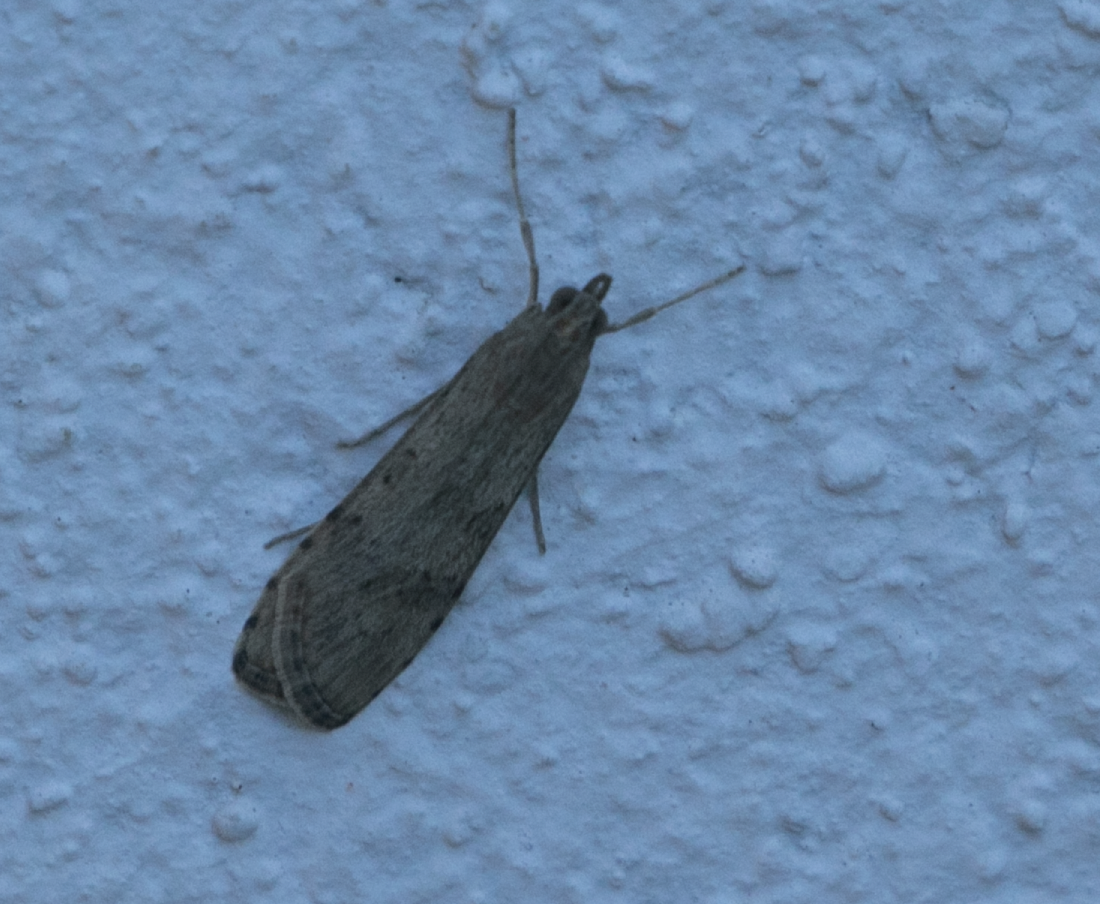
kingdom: Animalia
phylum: Arthropoda
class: Insecta
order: Lepidoptera
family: Crambidae
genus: Nomophila
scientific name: Nomophila noctuella
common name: Rush veneer
